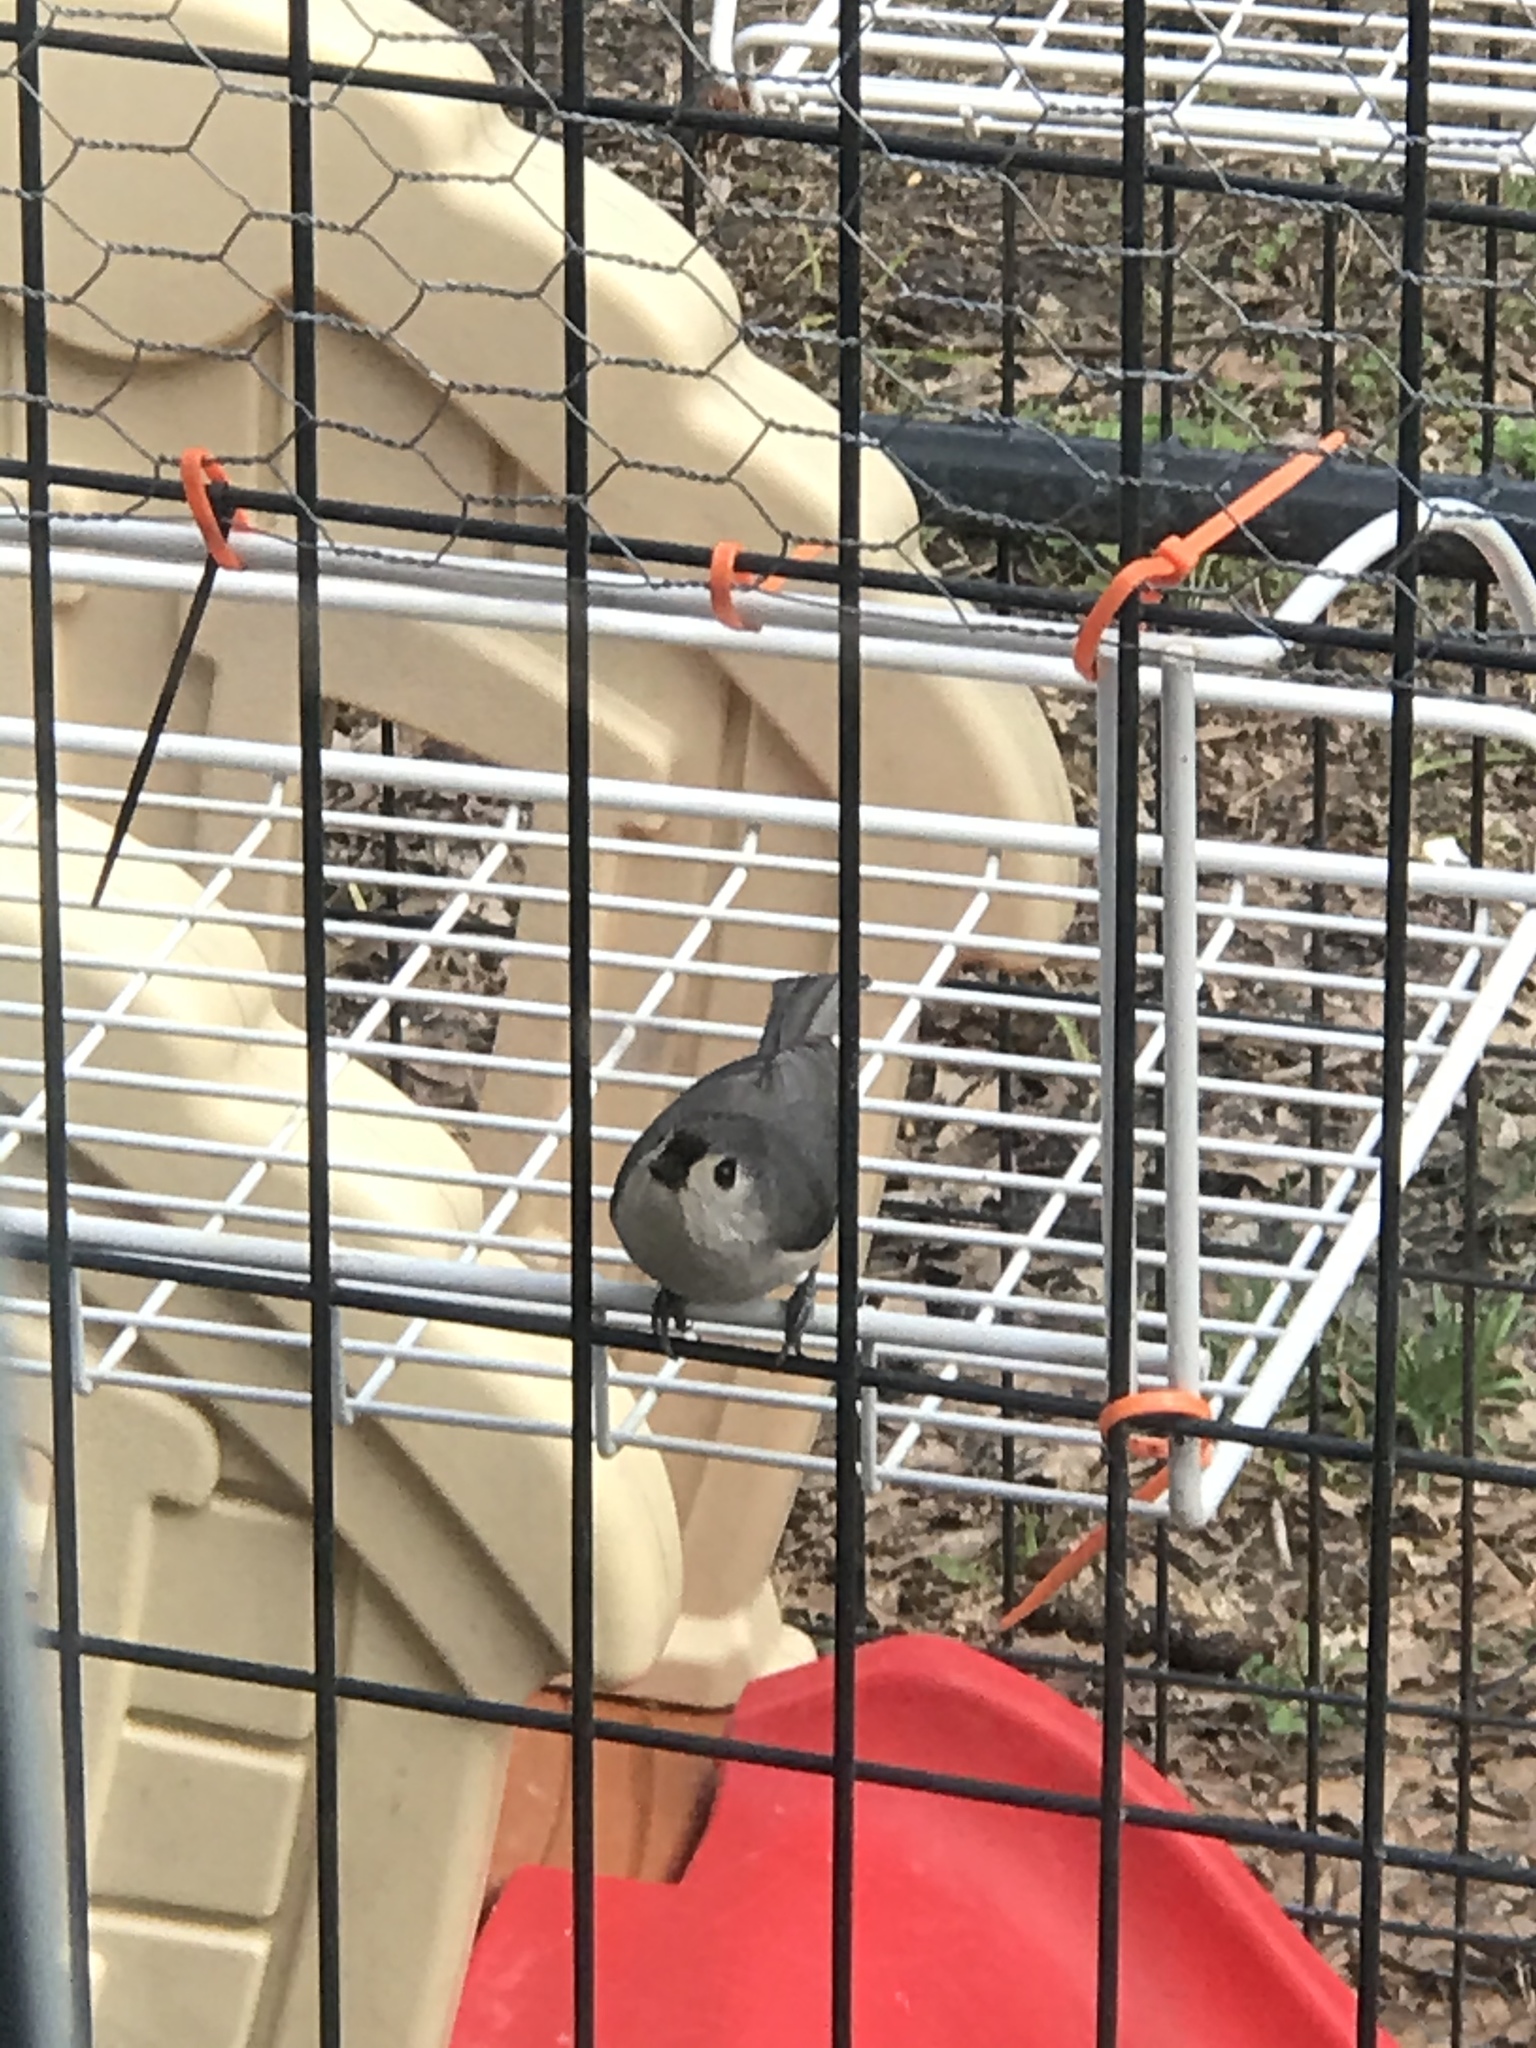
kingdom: Animalia
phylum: Chordata
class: Aves
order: Passeriformes
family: Paridae
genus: Baeolophus
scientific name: Baeolophus bicolor
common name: Tufted titmouse
